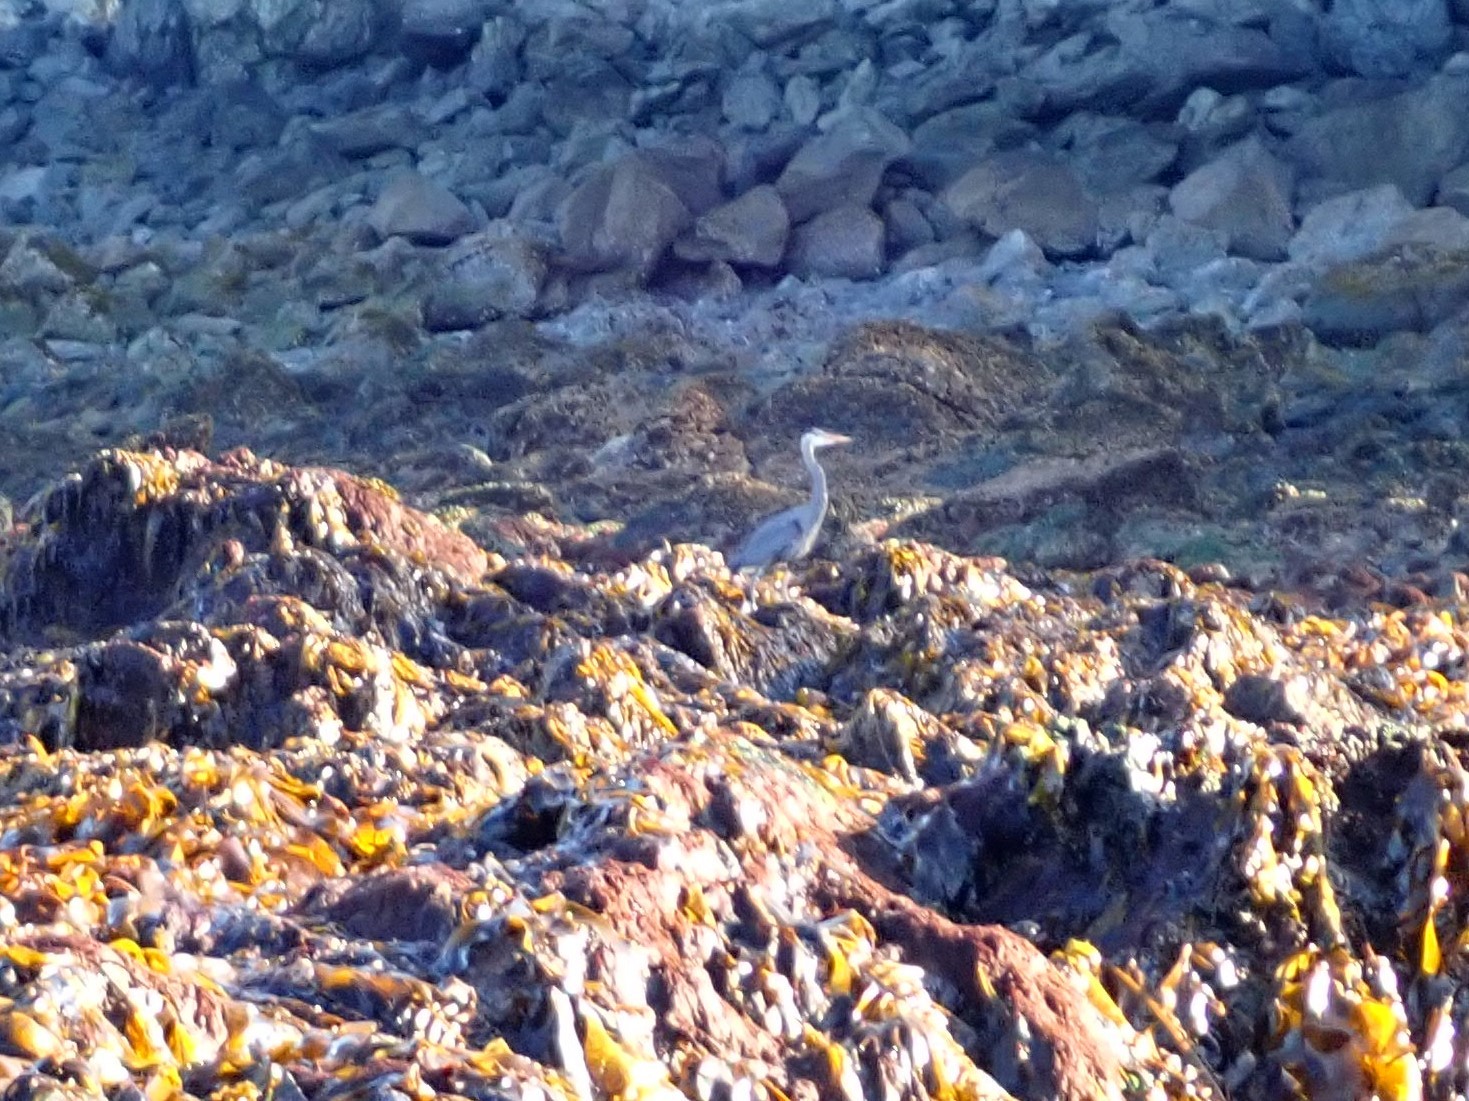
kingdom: Animalia
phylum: Chordata
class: Aves
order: Pelecaniformes
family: Ardeidae
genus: Ardea
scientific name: Ardea herodias
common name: Great blue heron
